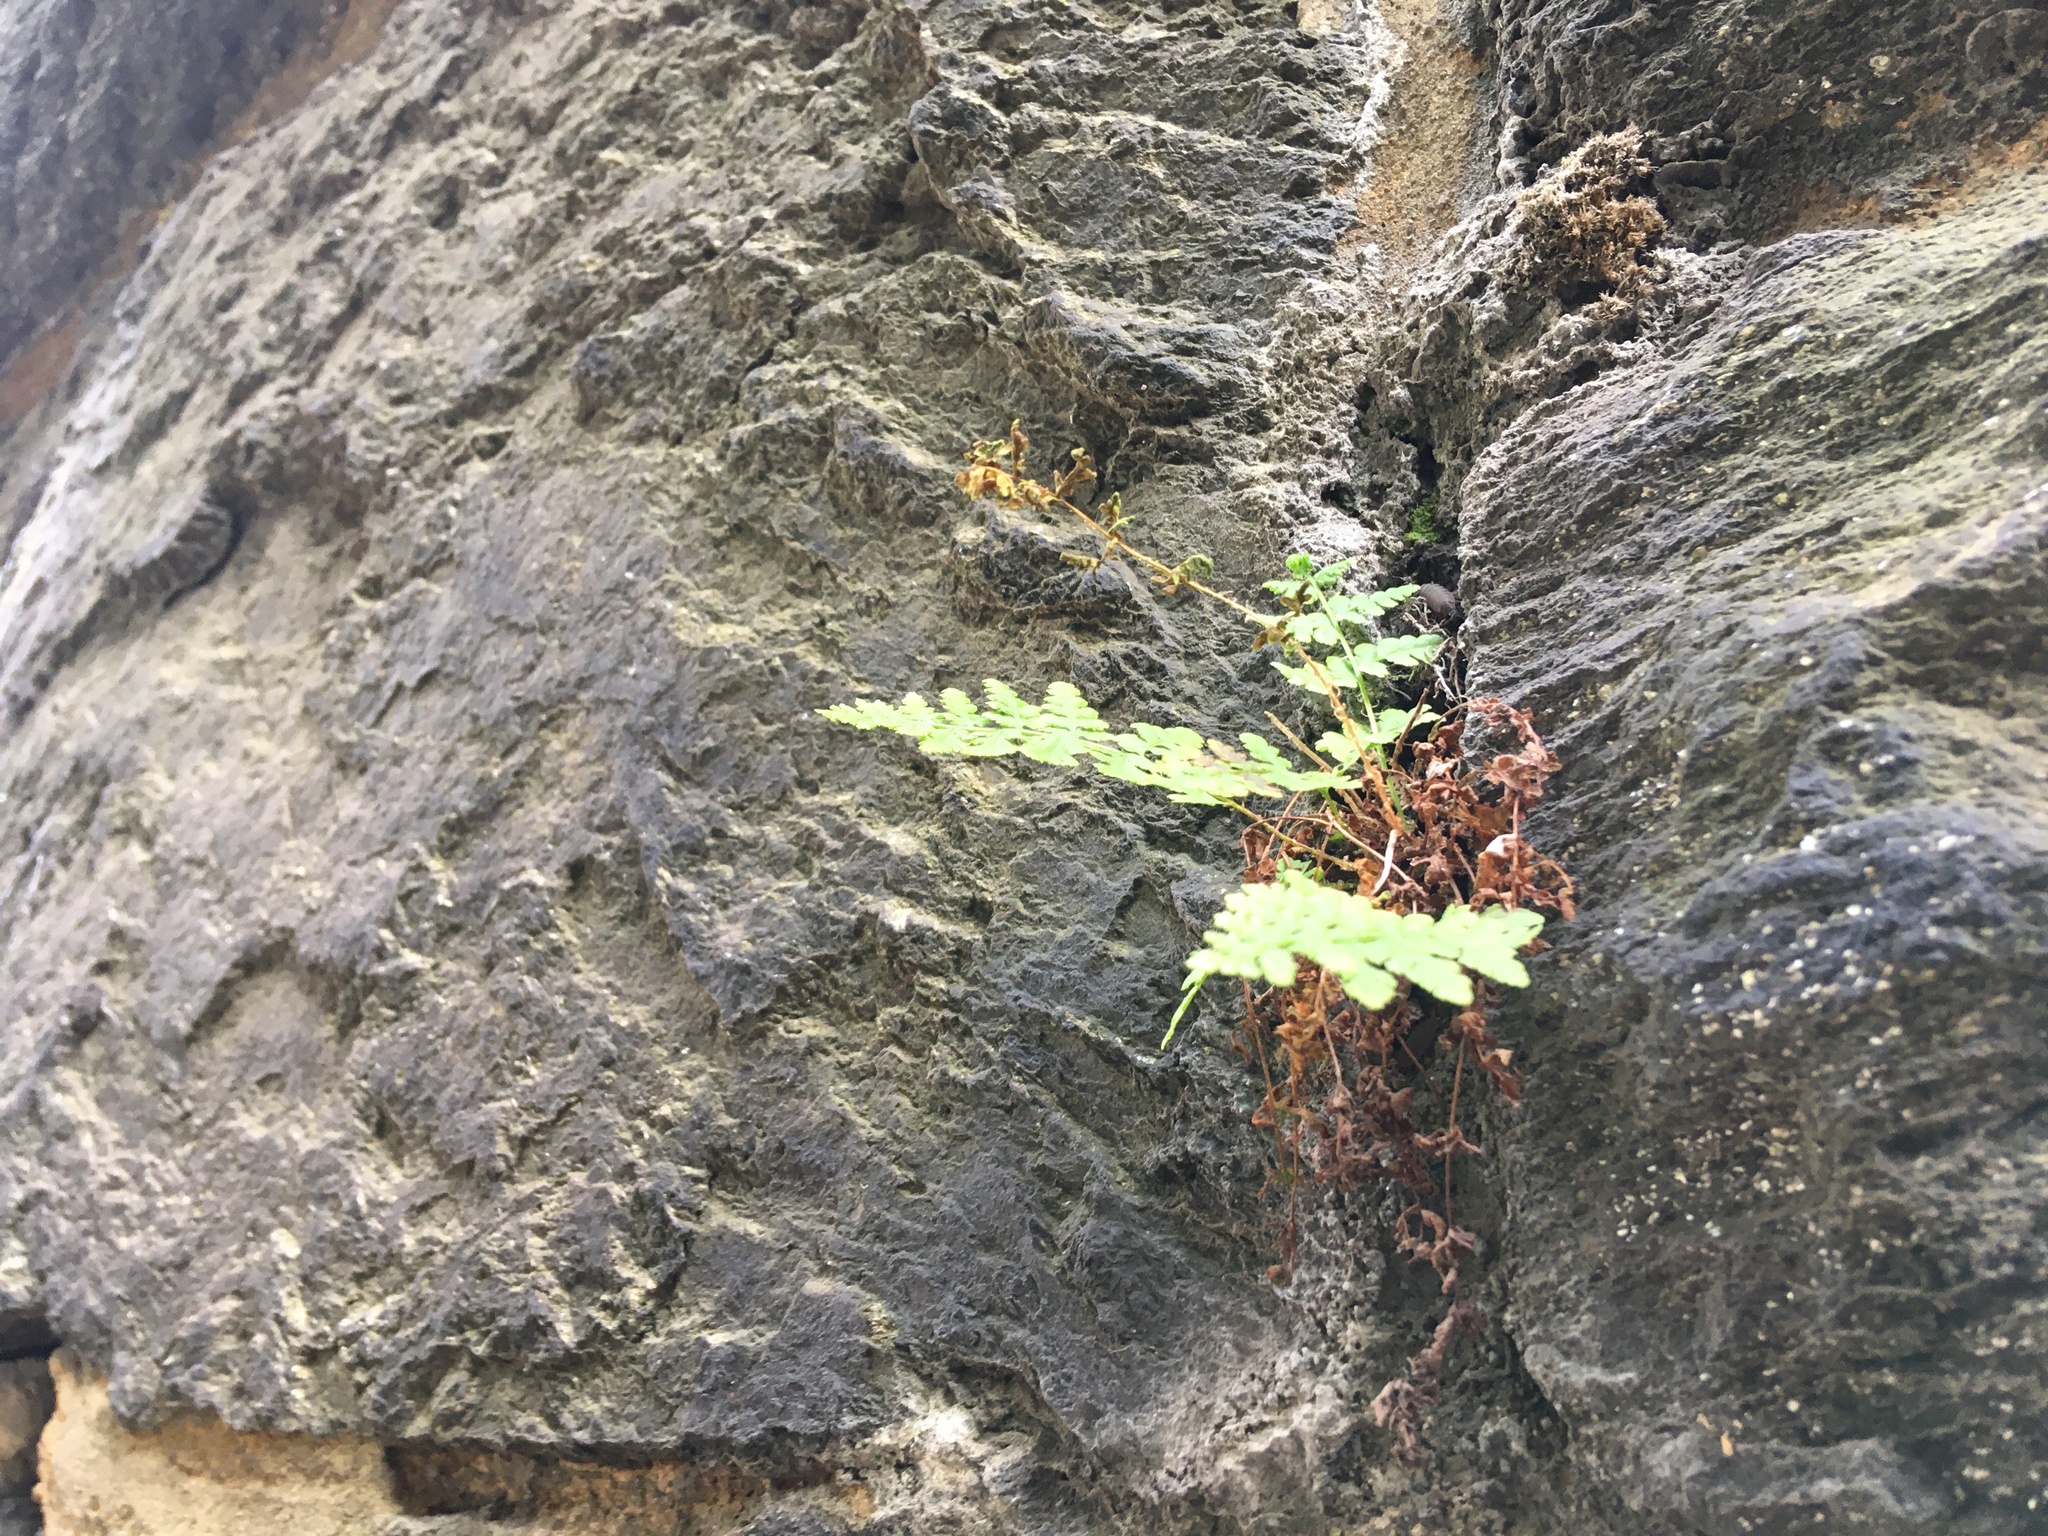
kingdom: Plantae
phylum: Tracheophyta
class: Polypodiopsida
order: Polypodiales
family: Woodsiaceae
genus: Physematium
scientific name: Physematium obtusum
